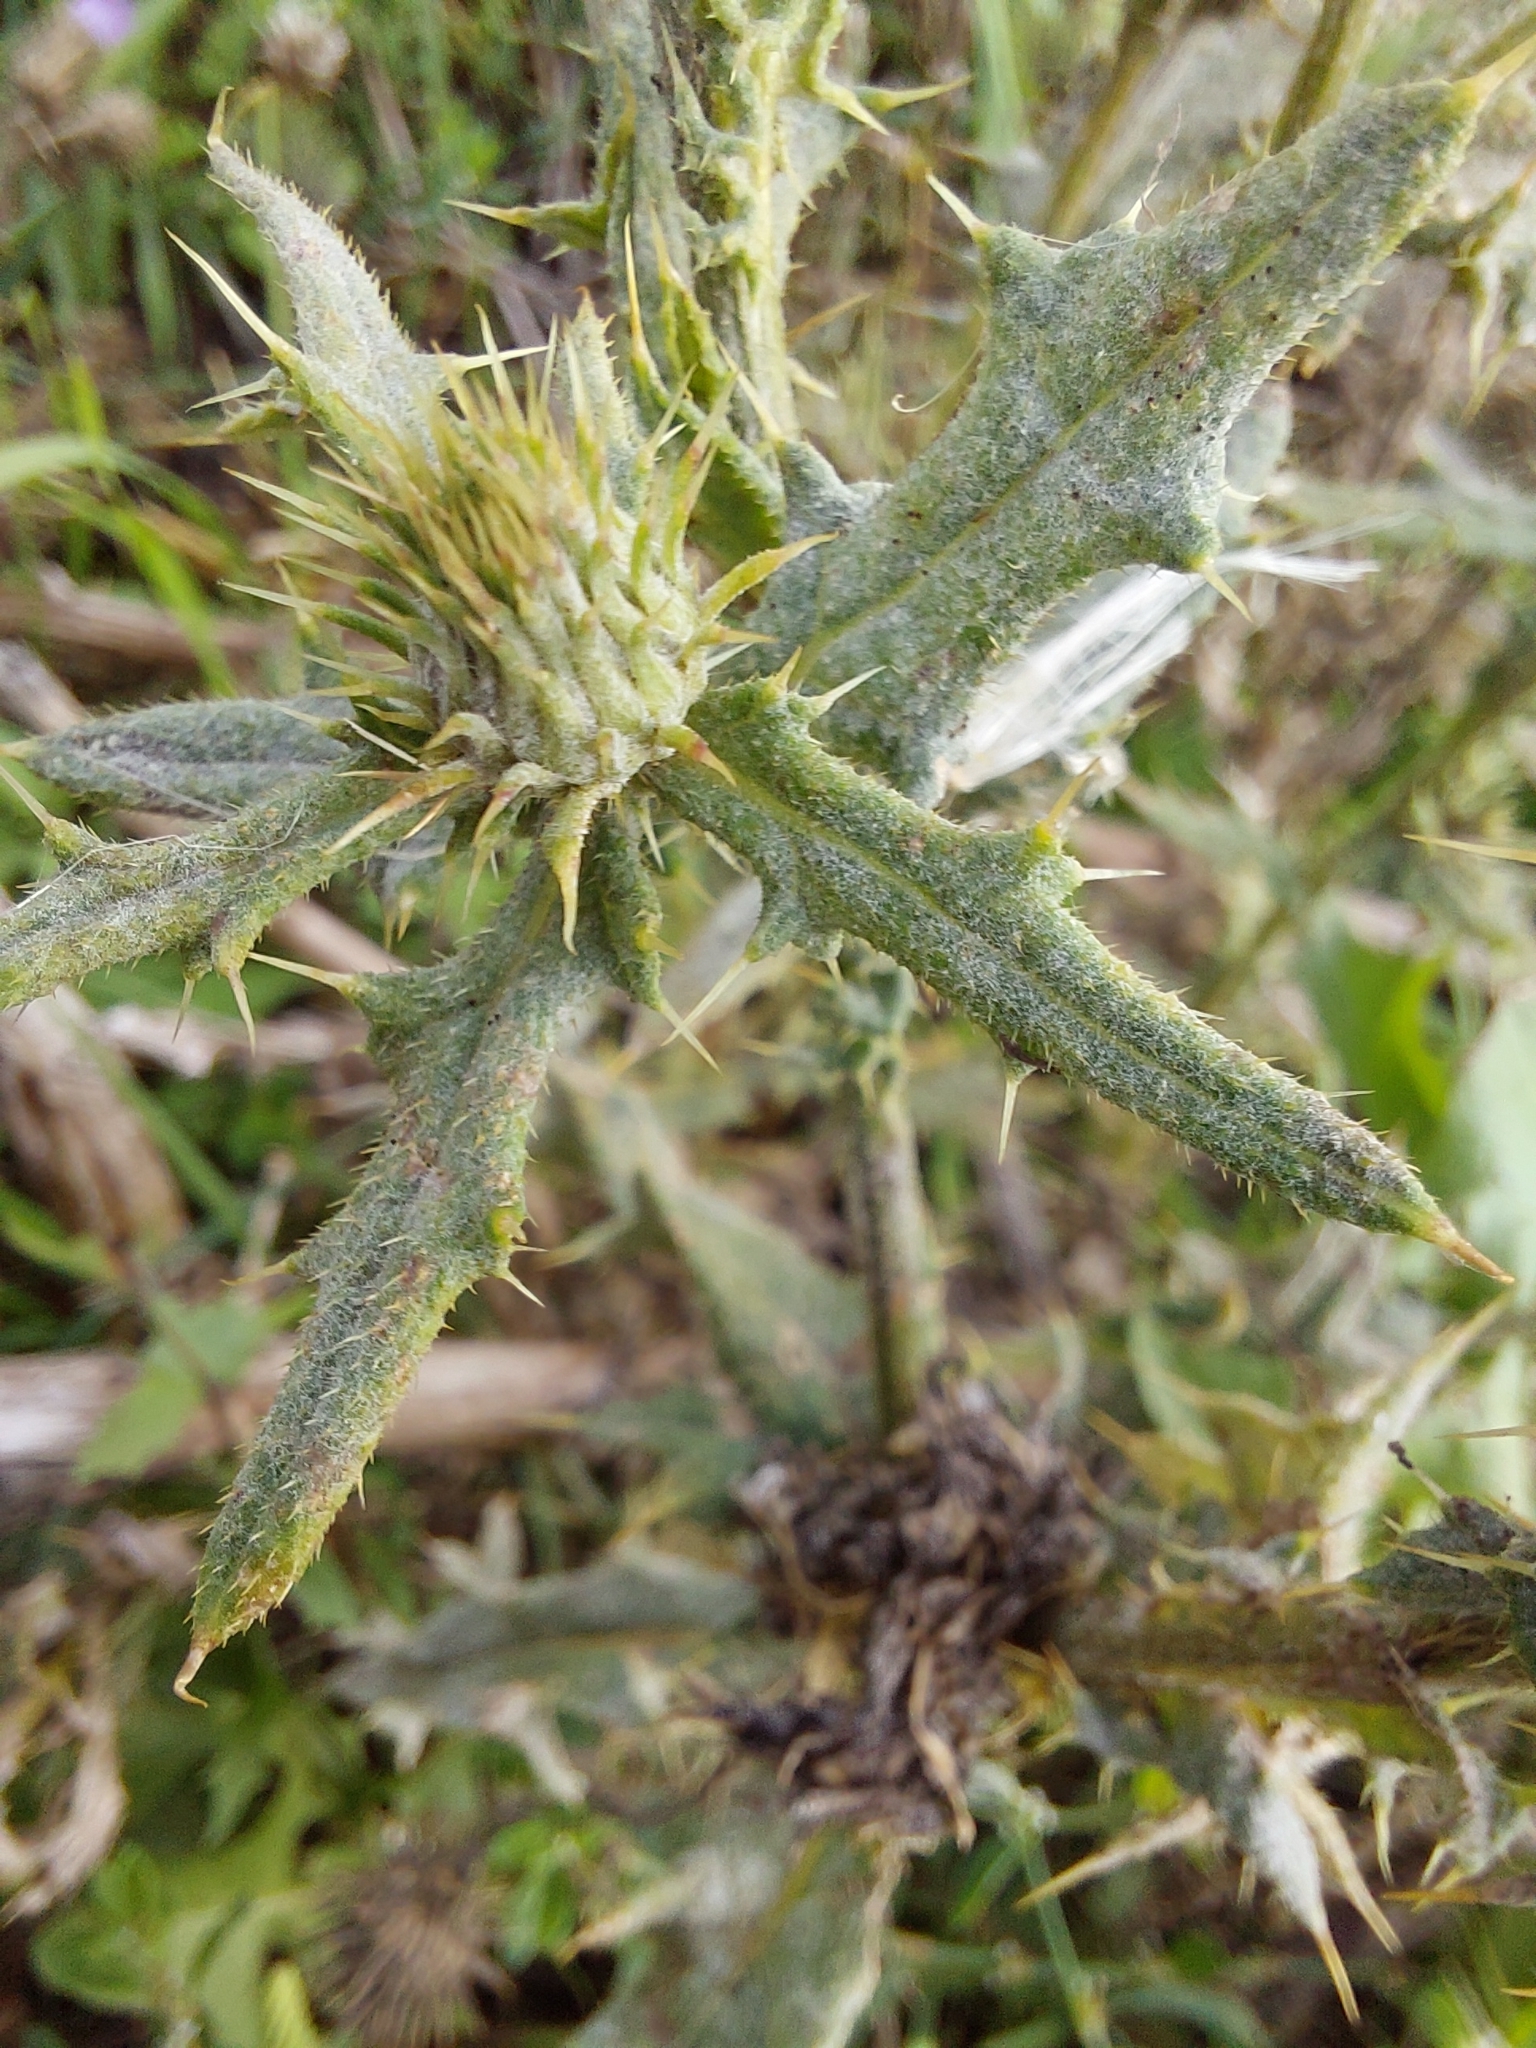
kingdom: Plantae
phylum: Tracheophyta
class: Magnoliopsida
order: Asterales
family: Asteraceae
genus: Cirsium
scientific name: Cirsium vulgare
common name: Bull thistle
